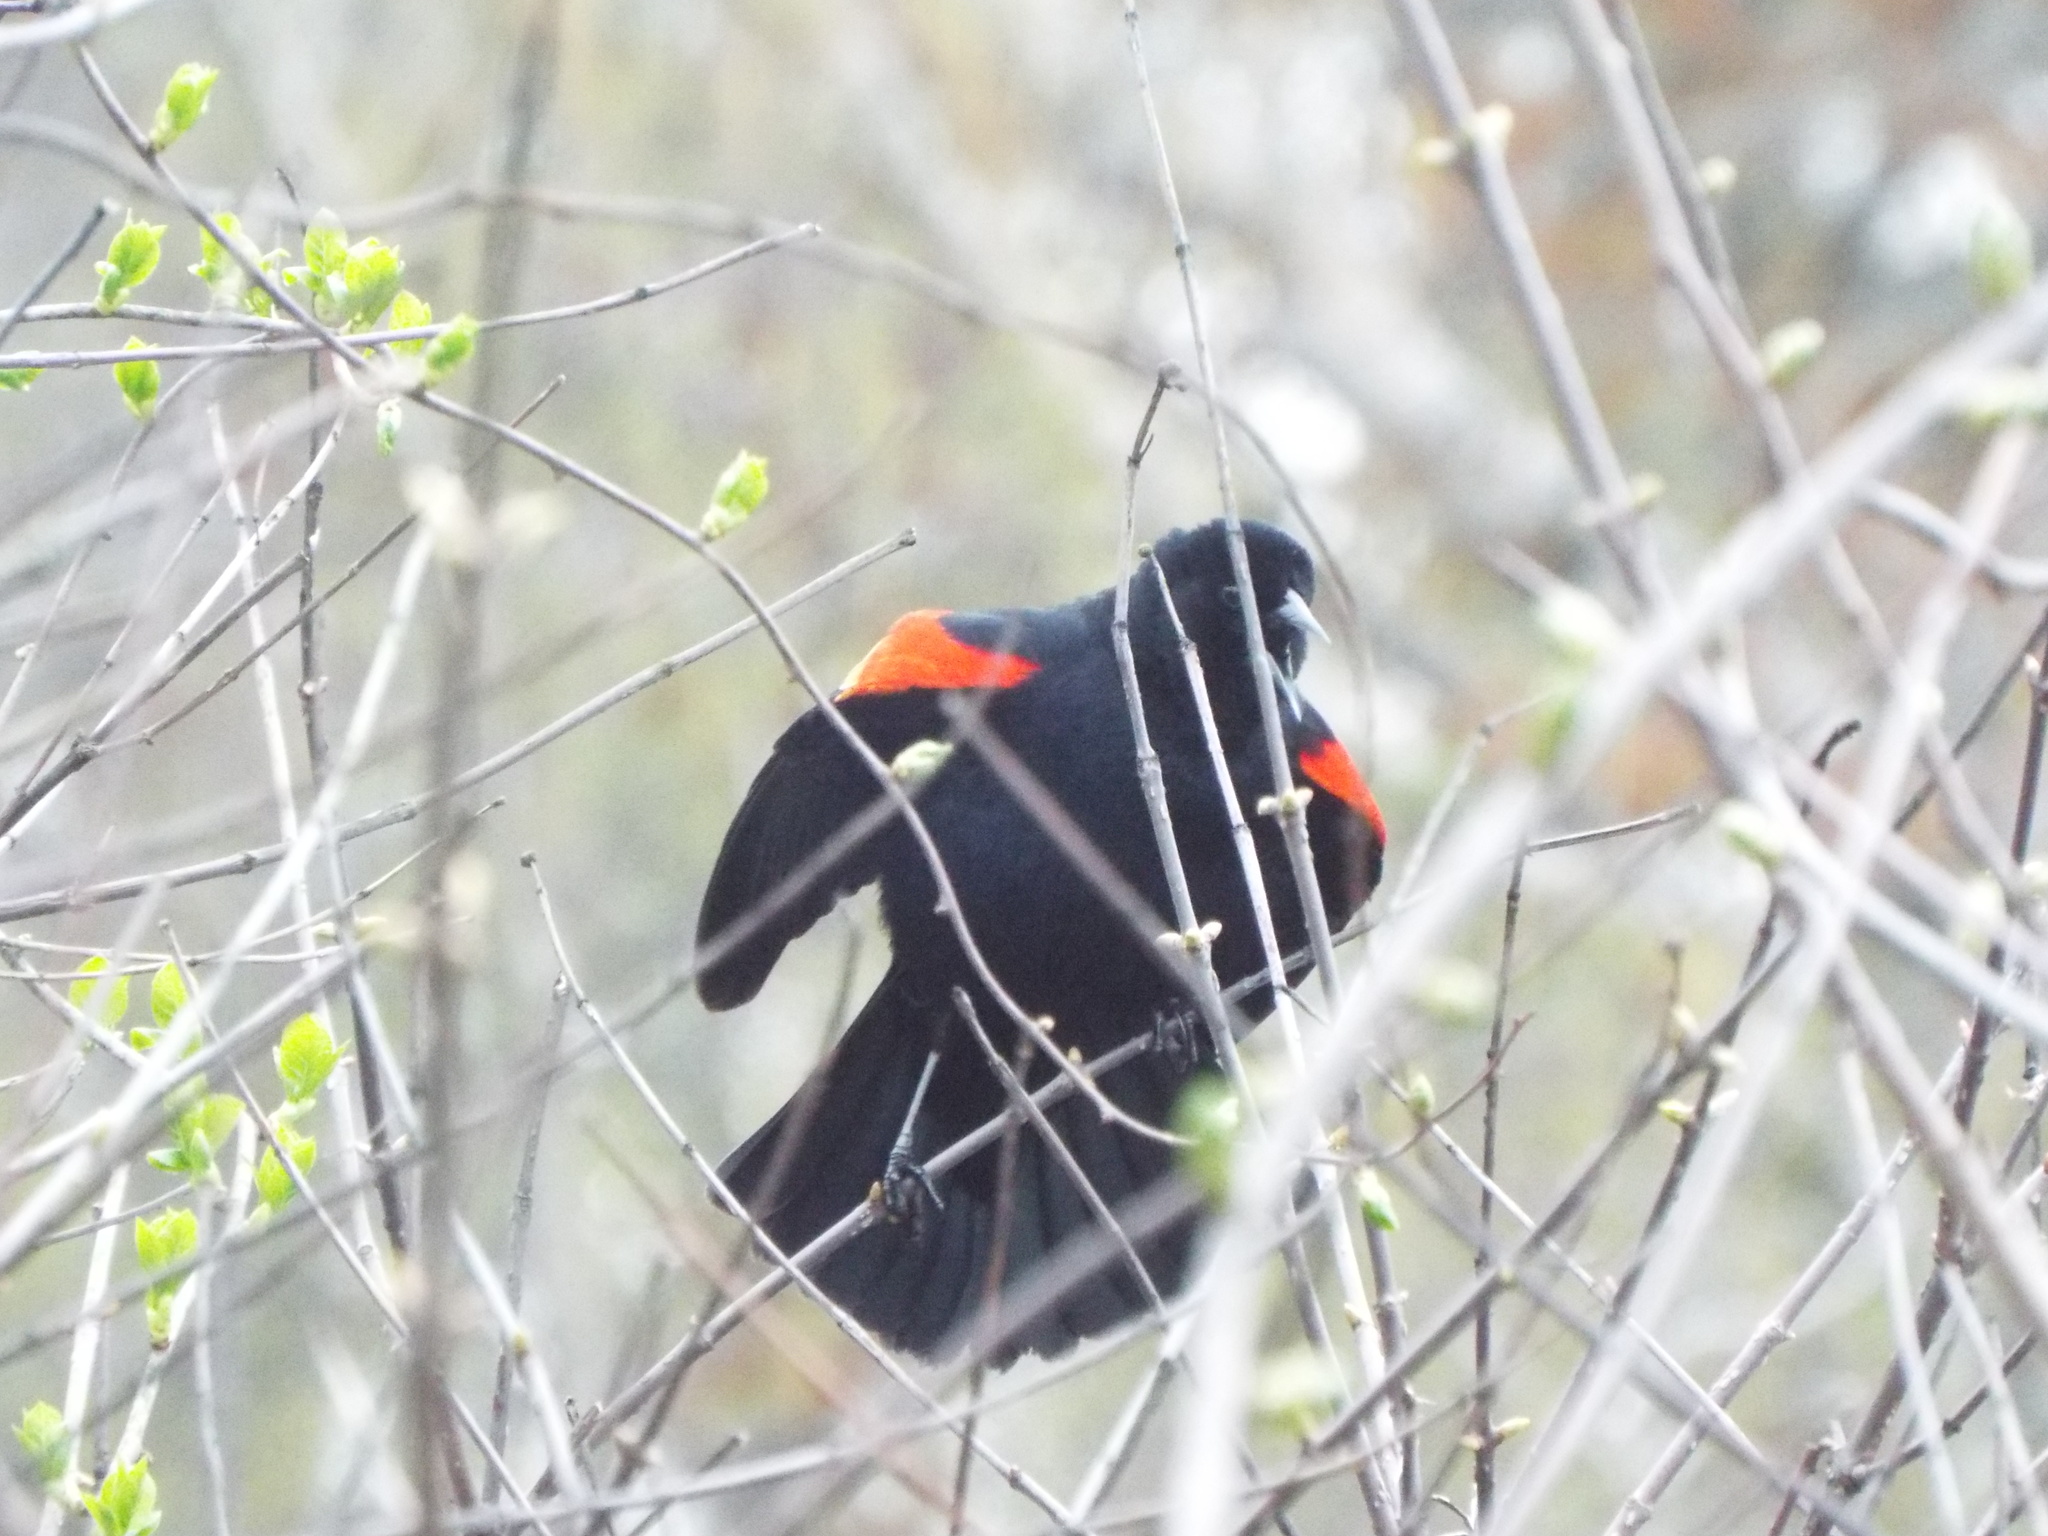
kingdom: Animalia
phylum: Chordata
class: Aves
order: Passeriformes
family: Icteridae
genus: Agelaius
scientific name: Agelaius phoeniceus
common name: Red-winged blackbird
